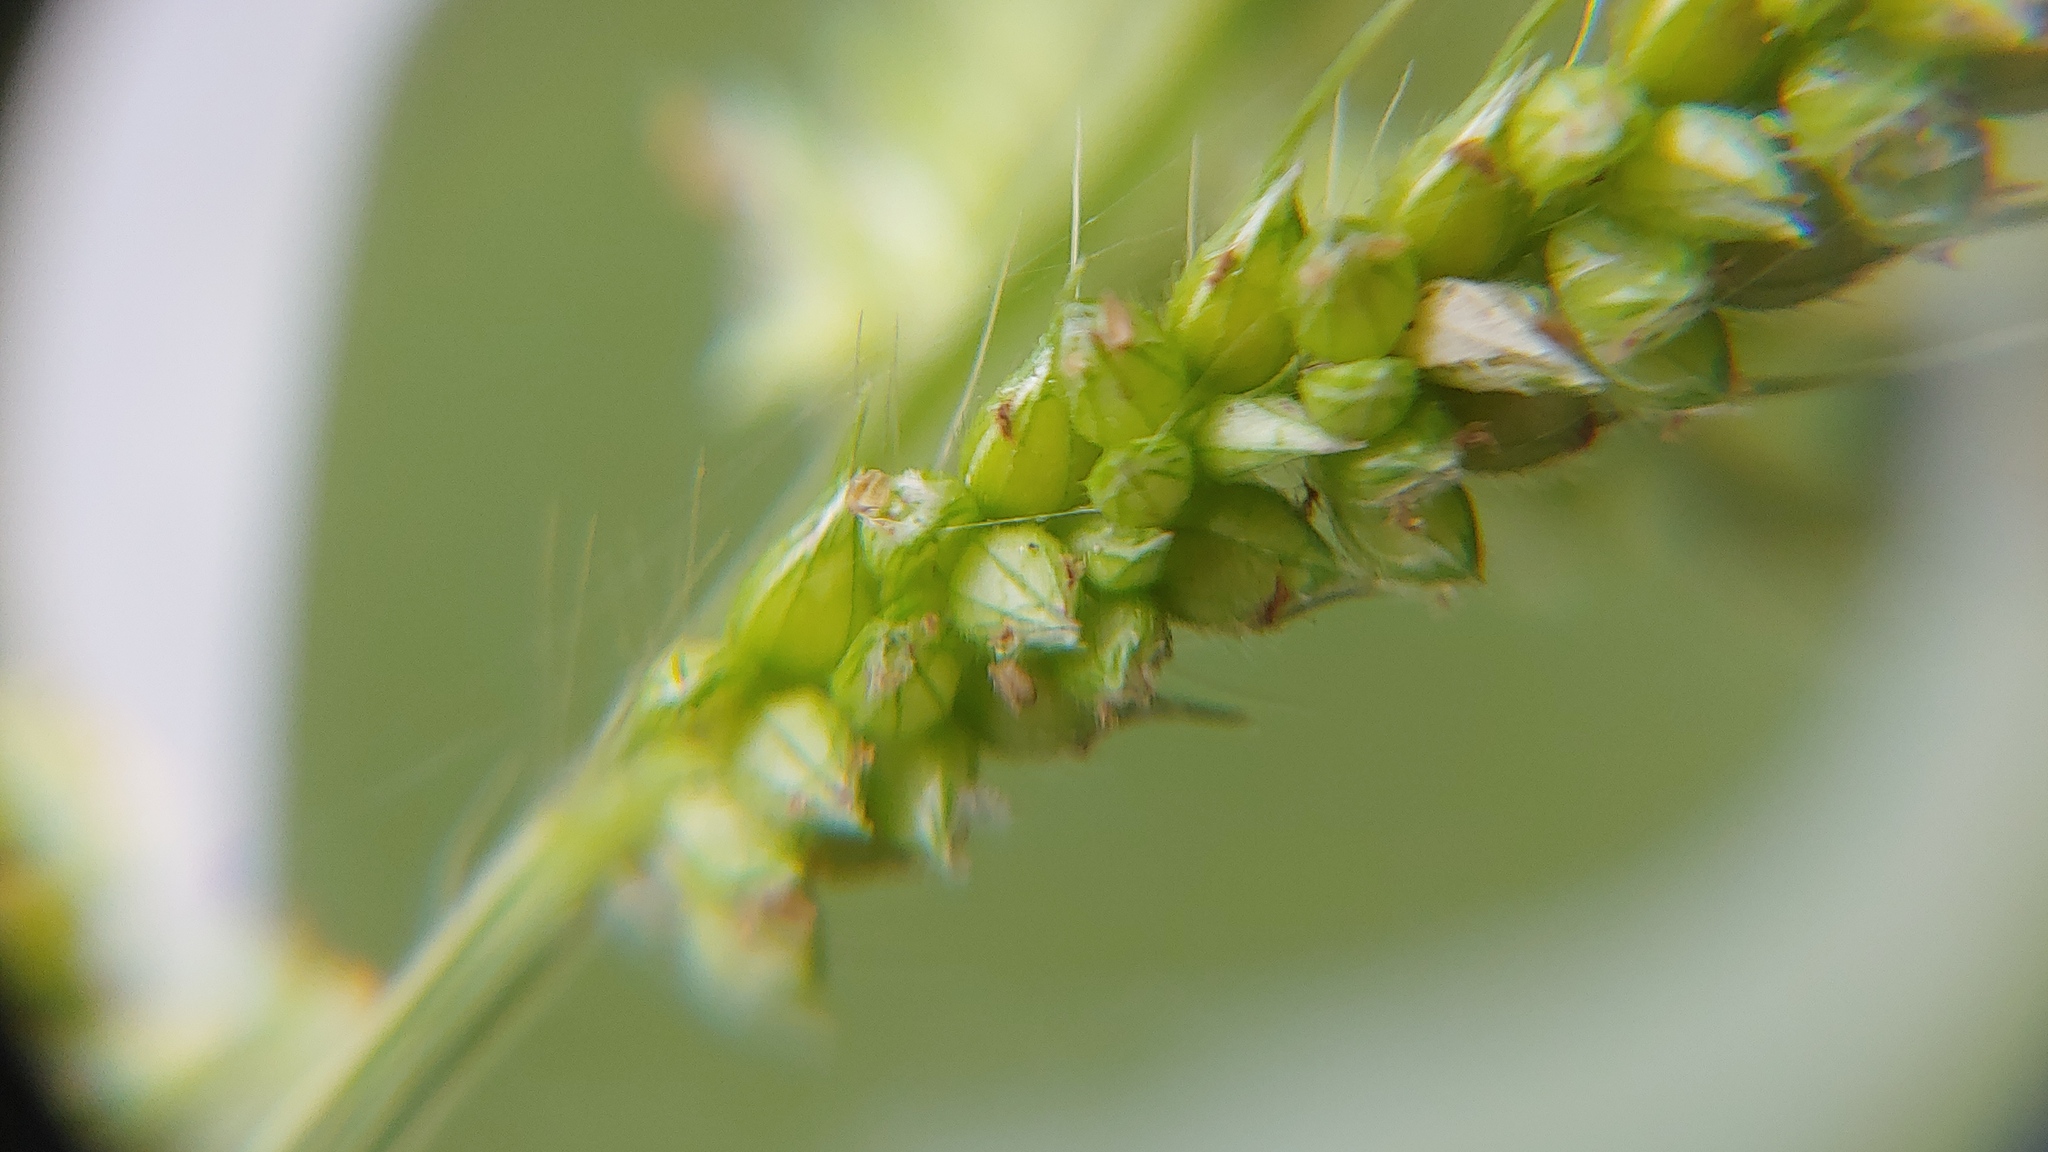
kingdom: Plantae
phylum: Tracheophyta
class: Liliopsida
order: Poales
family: Poaceae
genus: Echinochloa
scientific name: Echinochloa crus-galli
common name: Cockspur
